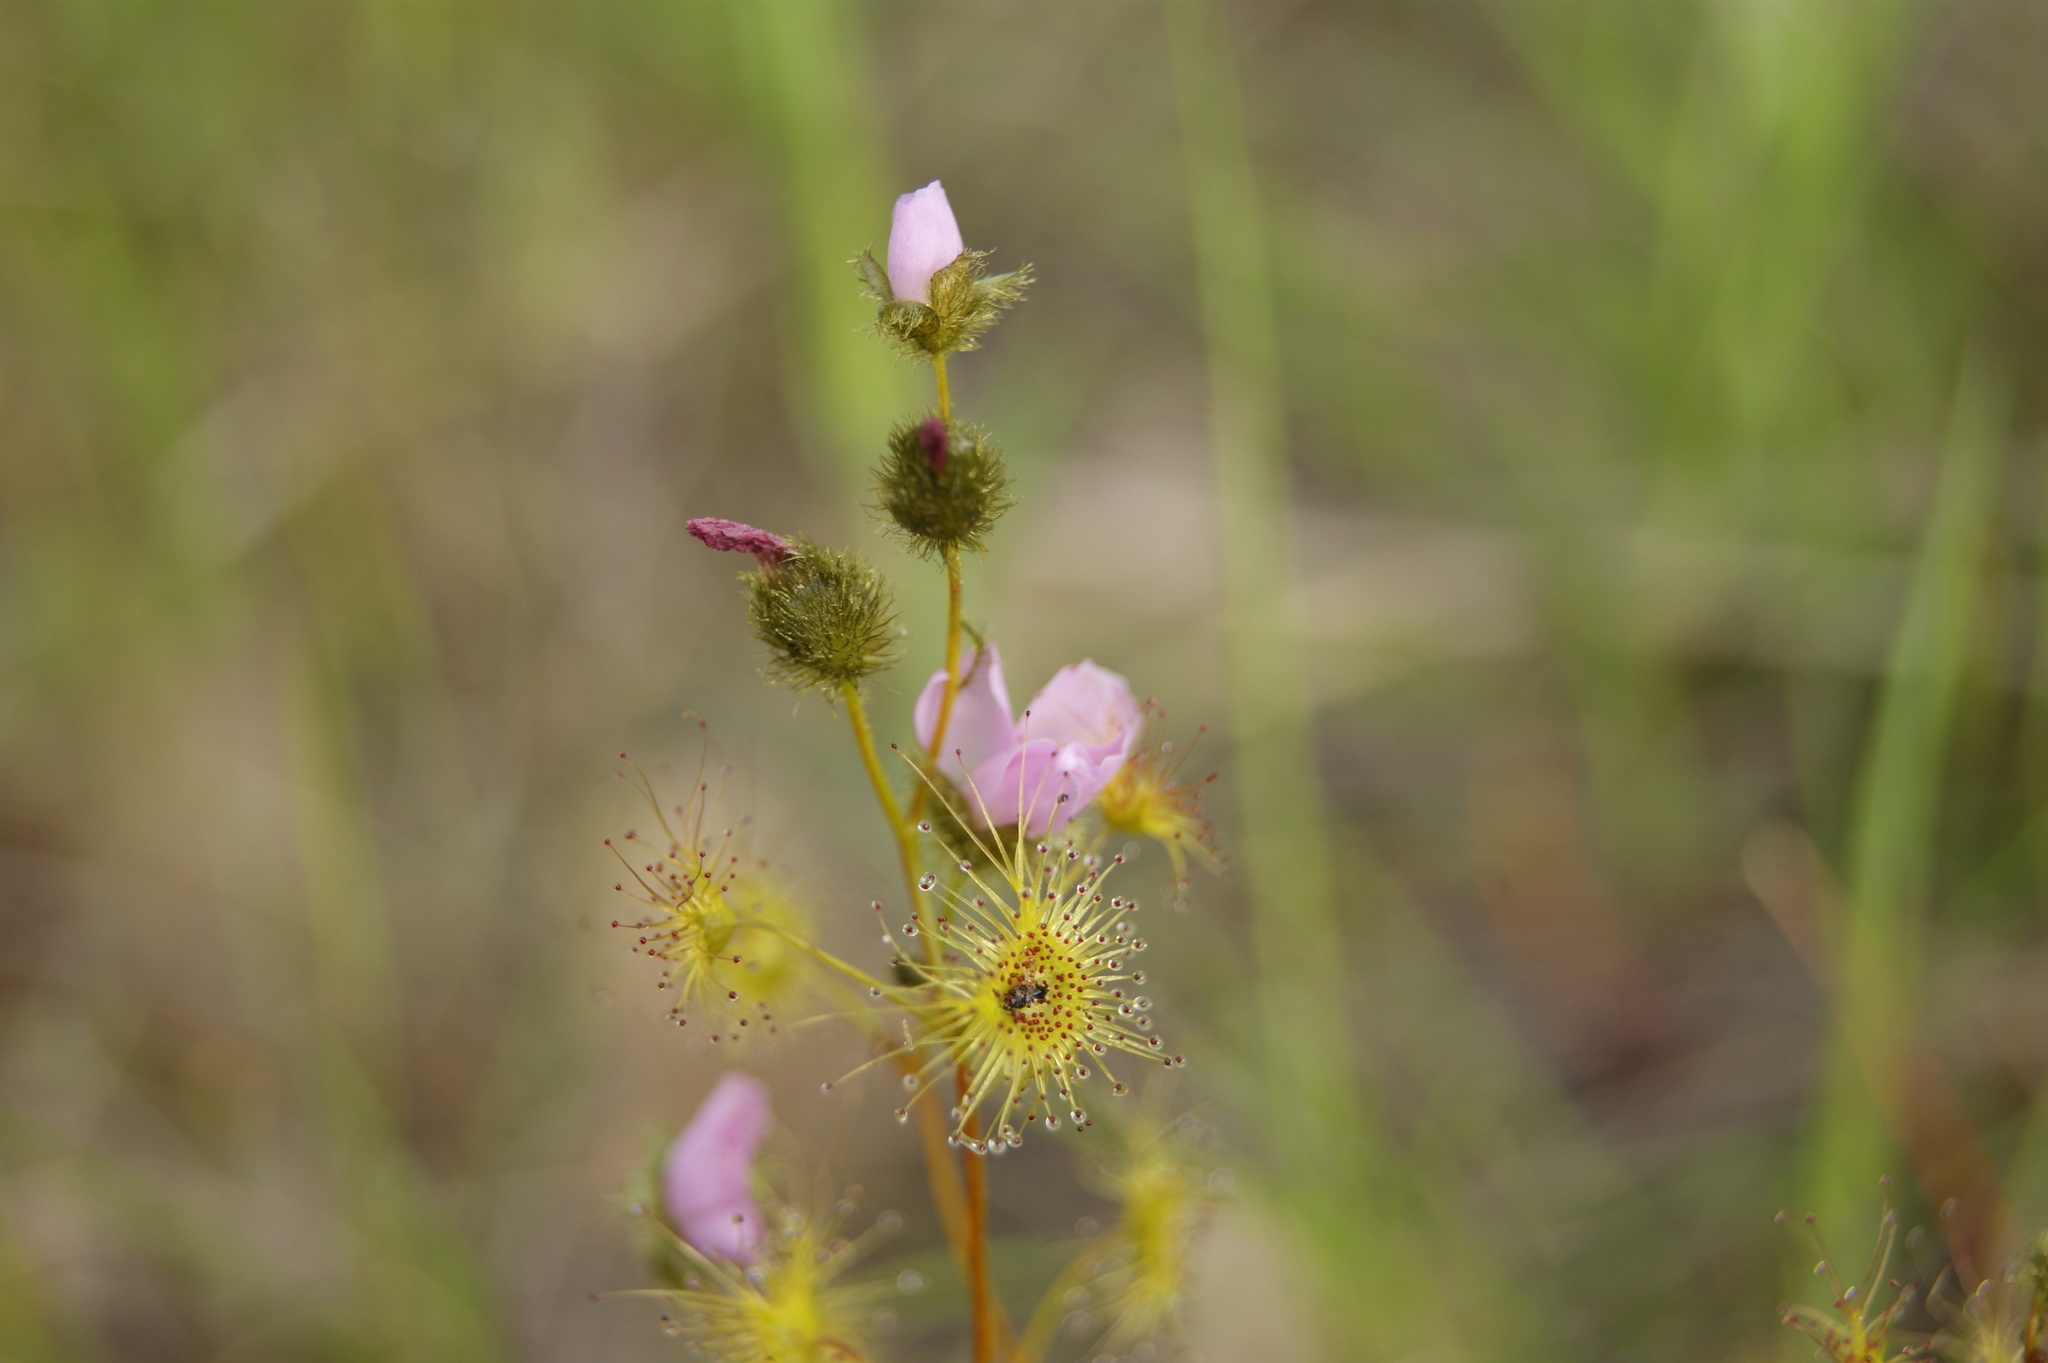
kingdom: Plantae
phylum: Tracheophyta
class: Magnoliopsida
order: Caryophyllales
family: Droseraceae
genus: Drosera
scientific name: Drosera gunniana
